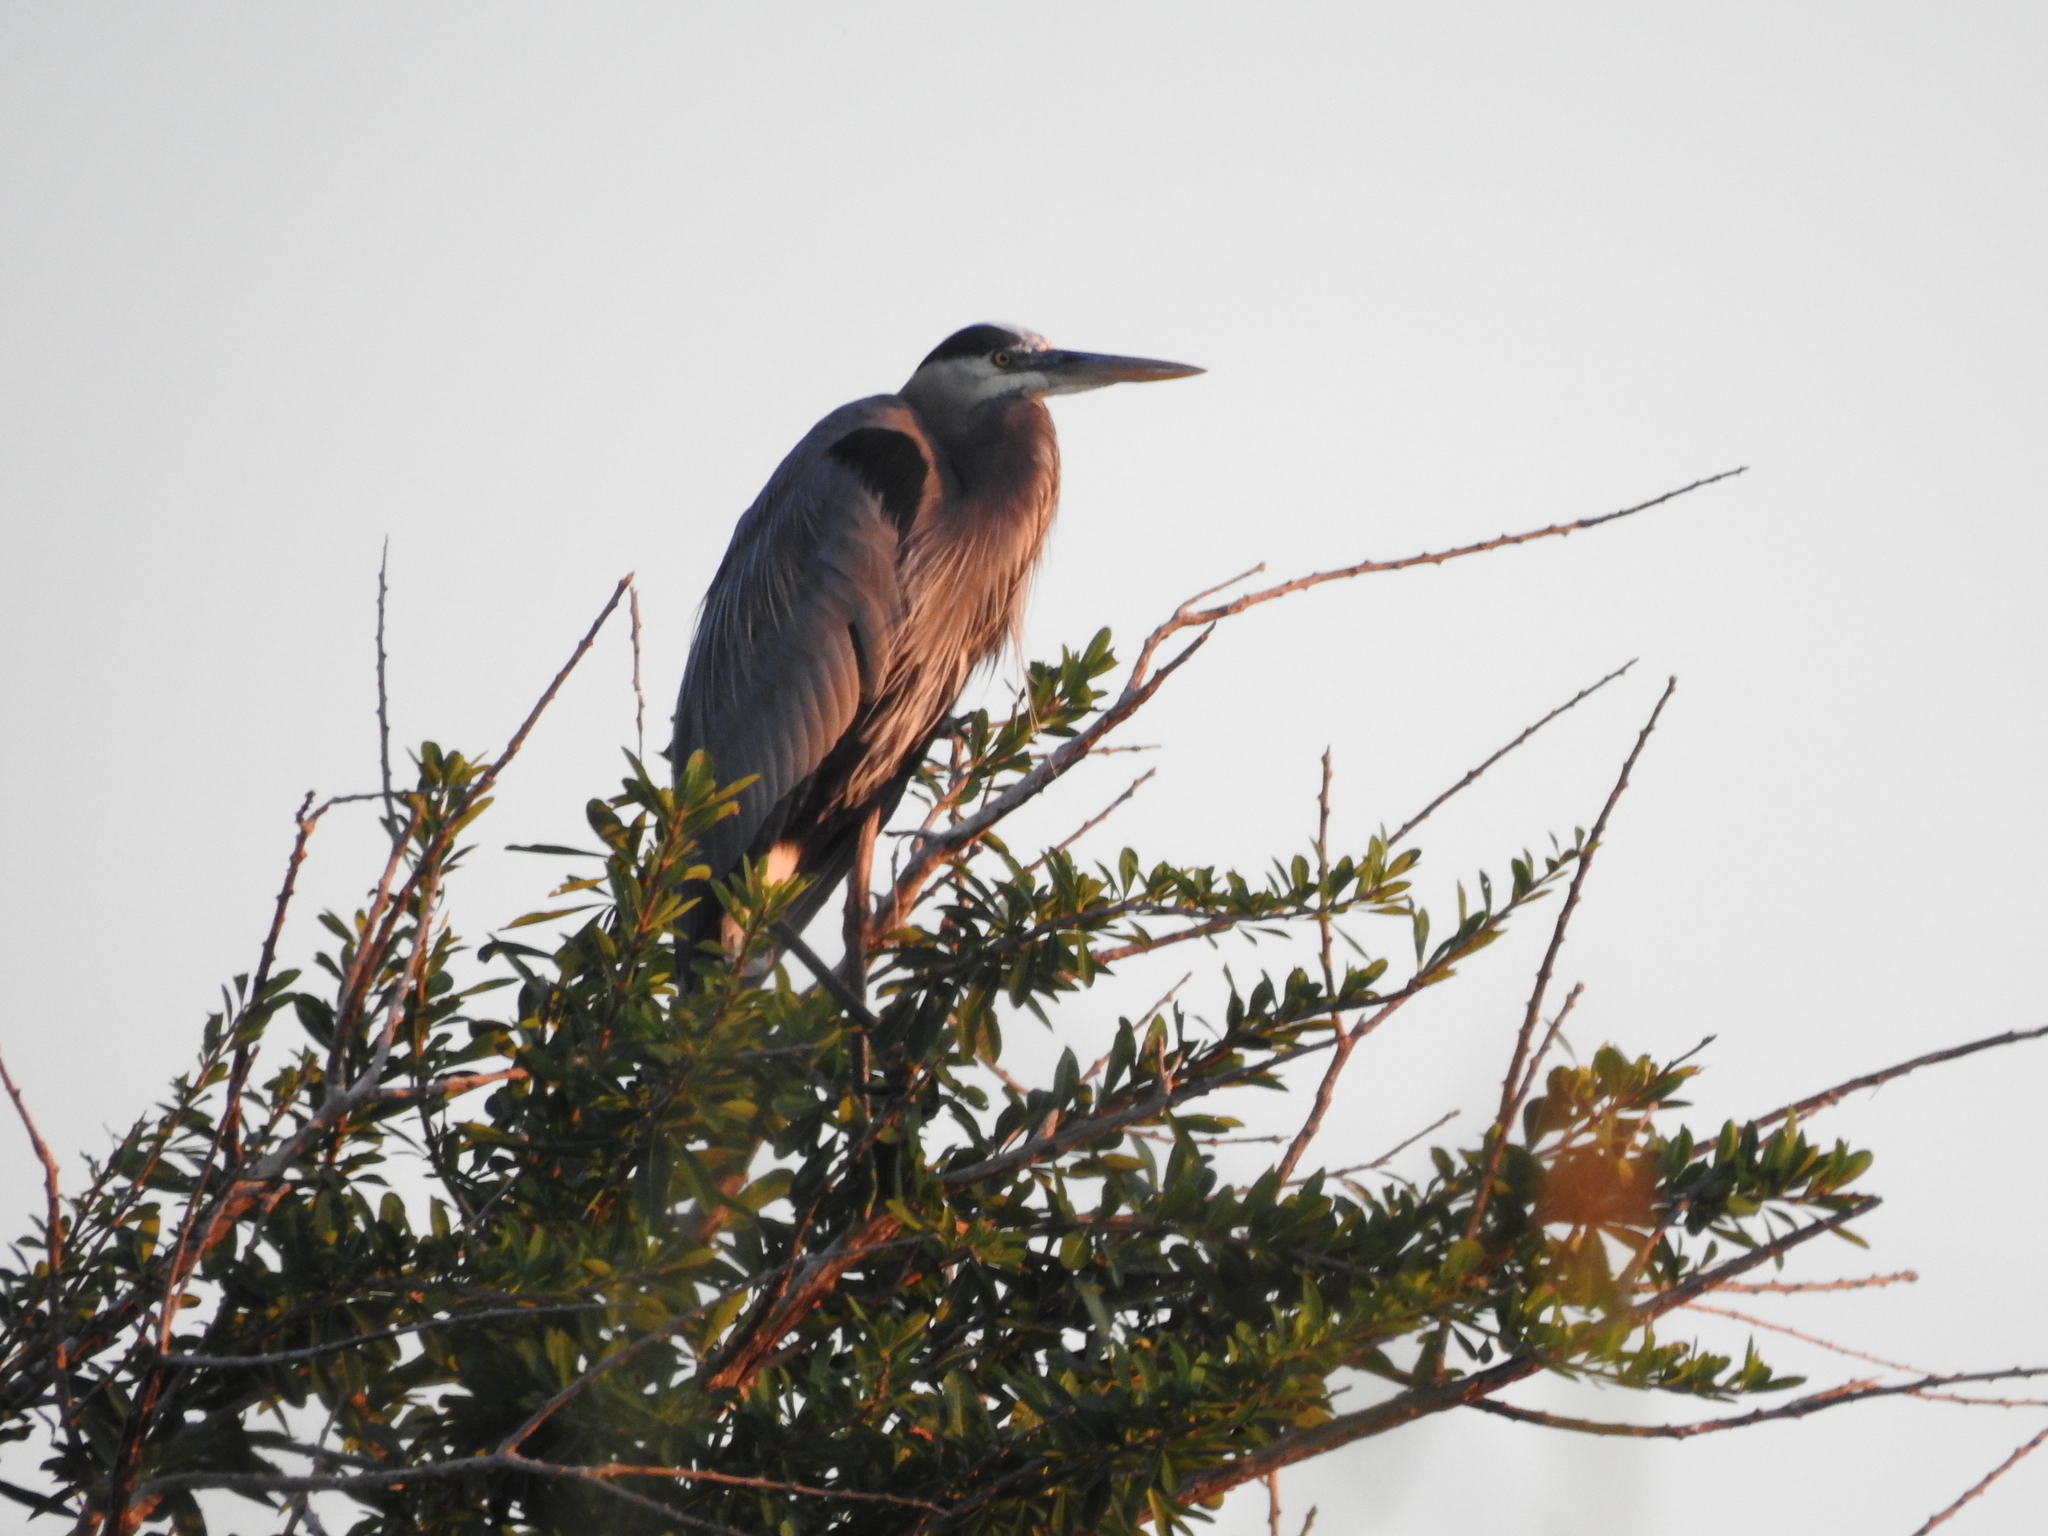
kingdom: Animalia
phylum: Chordata
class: Aves
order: Pelecaniformes
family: Ardeidae
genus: Ardea
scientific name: Ardea herodias
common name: Great blue heron
